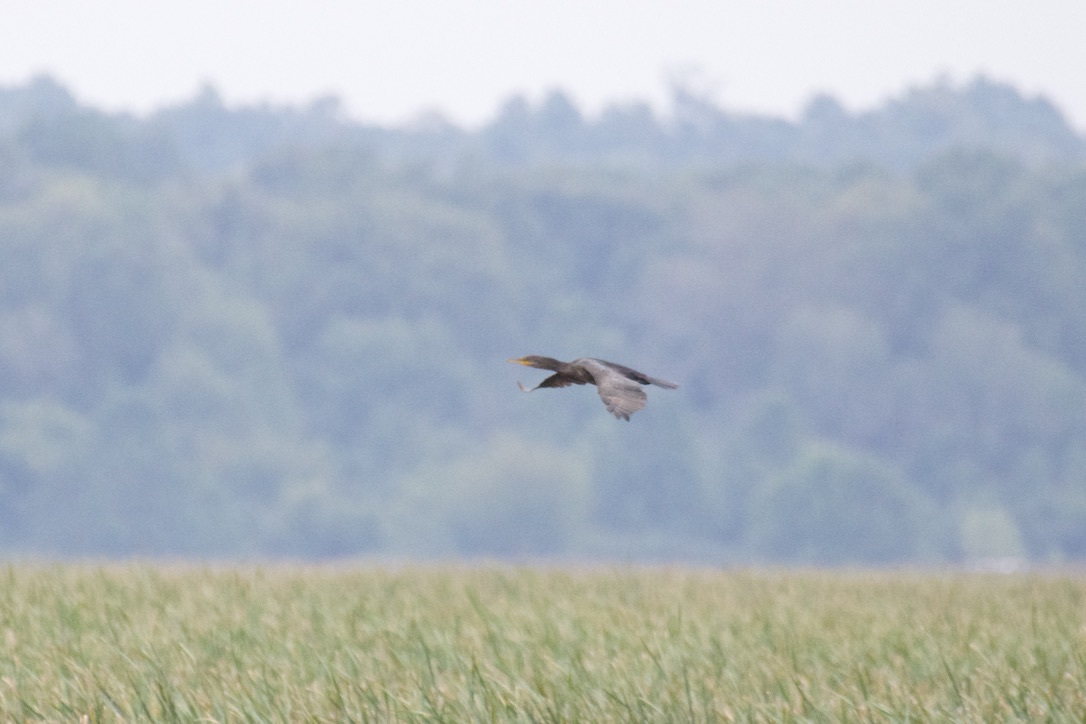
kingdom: Animalia
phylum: Chordata
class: Aves
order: Suliformes
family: Phalacrocoracidae
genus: Phalacrocorax
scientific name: Phalacrocorax auritus
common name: Double-crested cormorant
